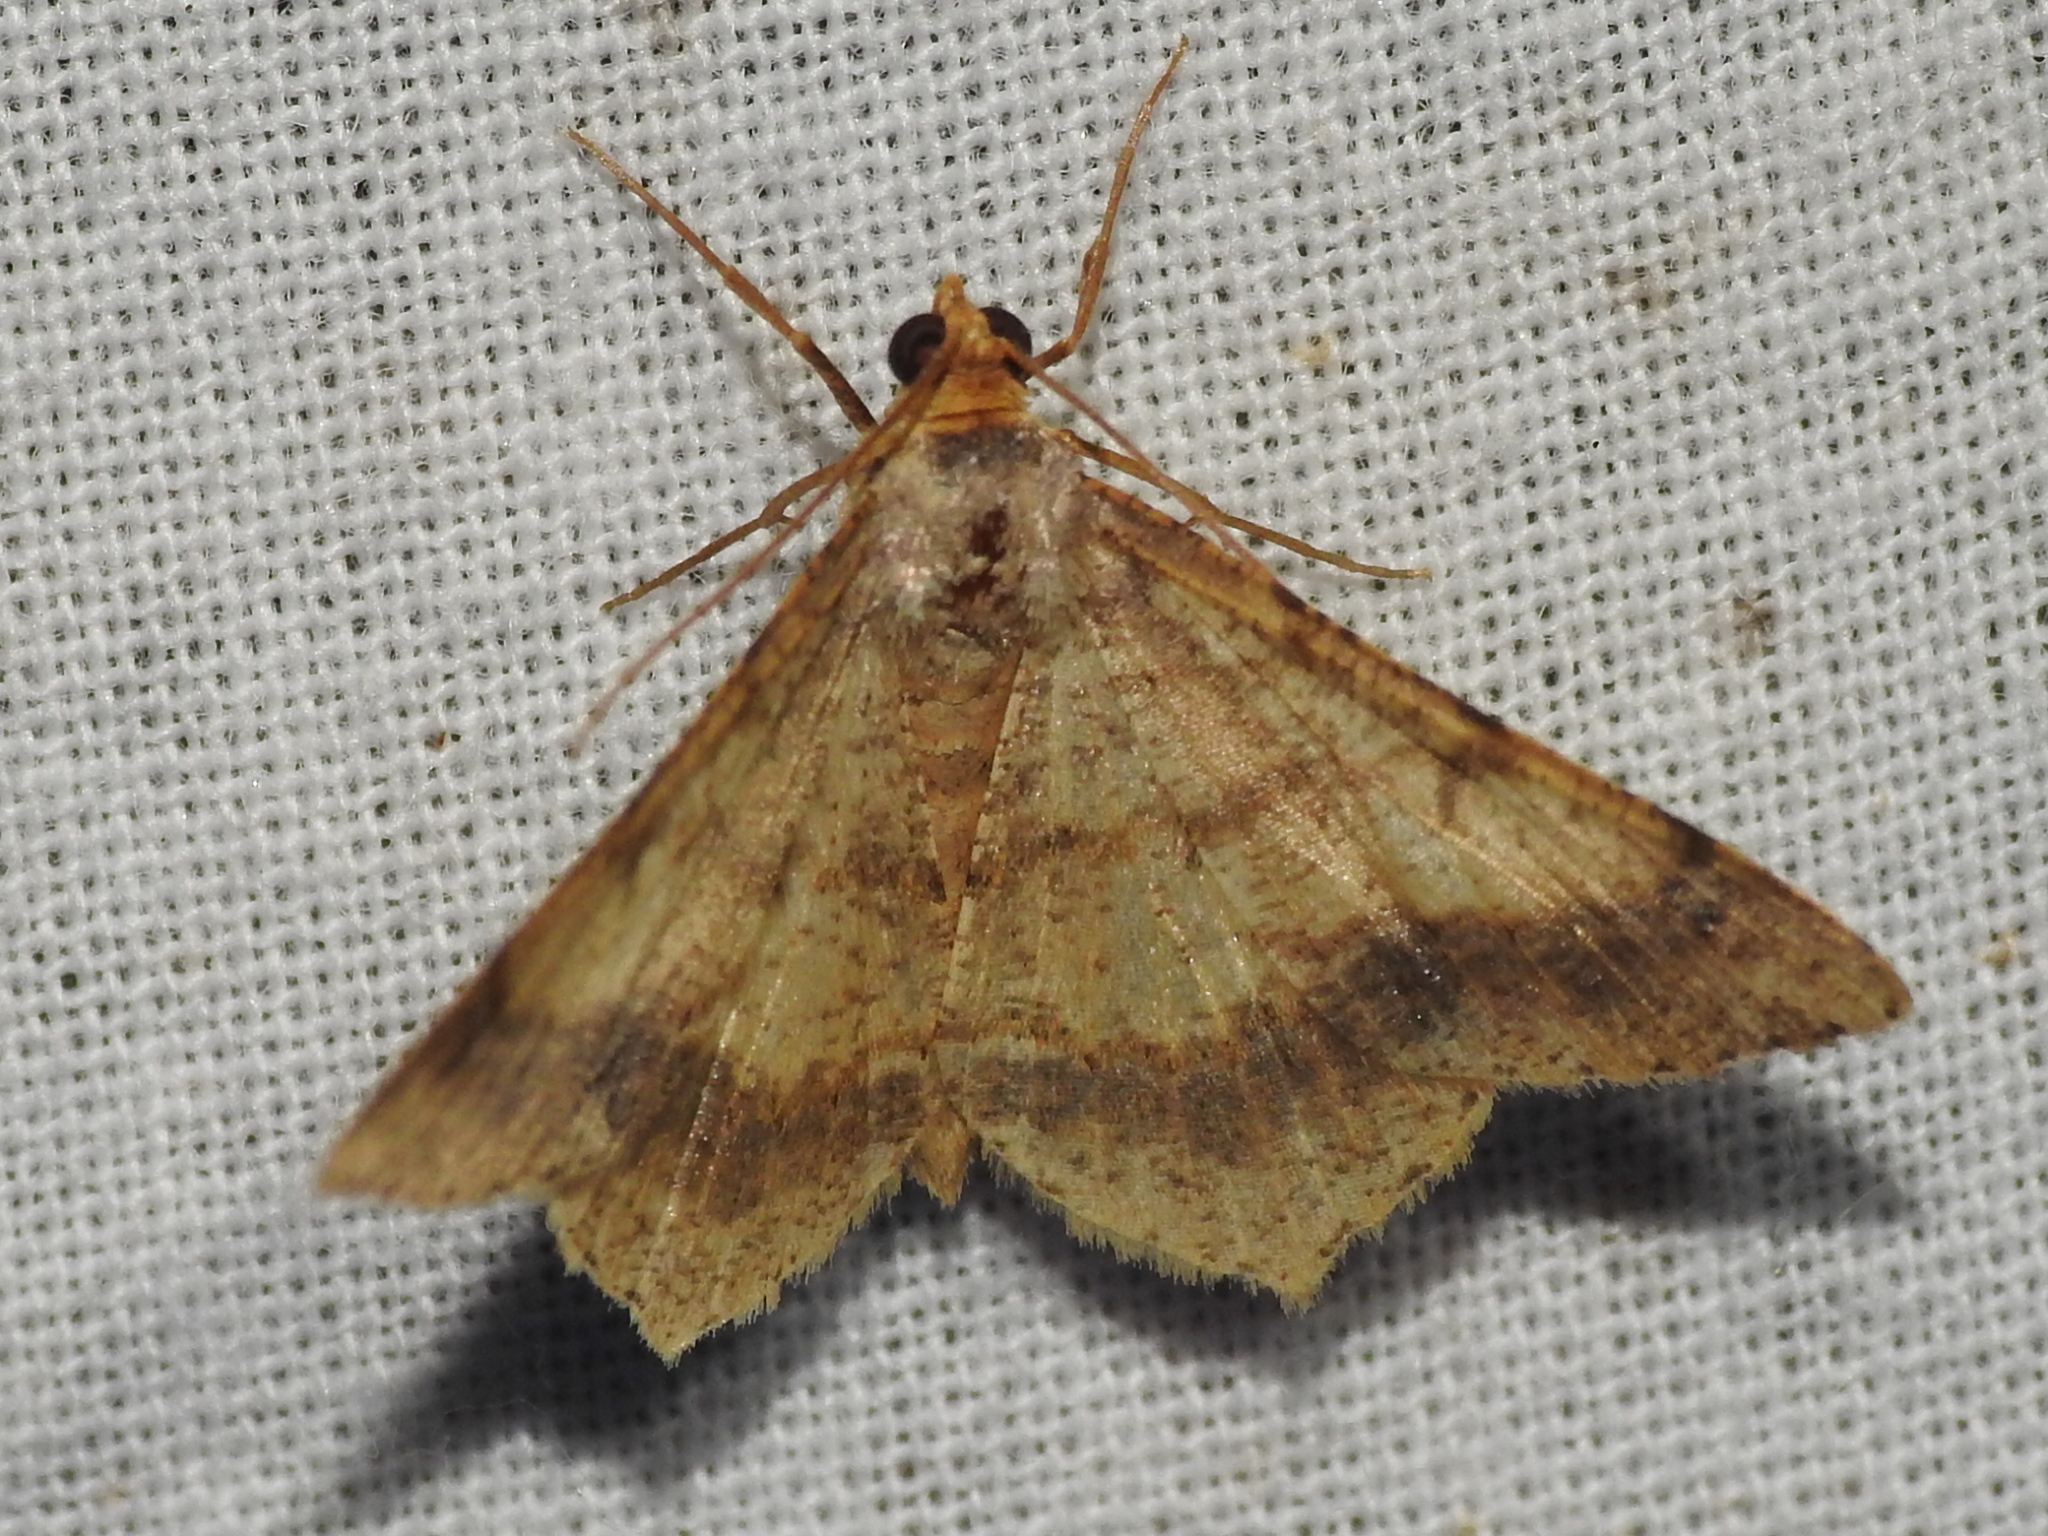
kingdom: Animalia
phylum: Arthropoda
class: Insecta
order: Lepidoptera
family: Geometridae
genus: Macaria
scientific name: Macaria abydata
